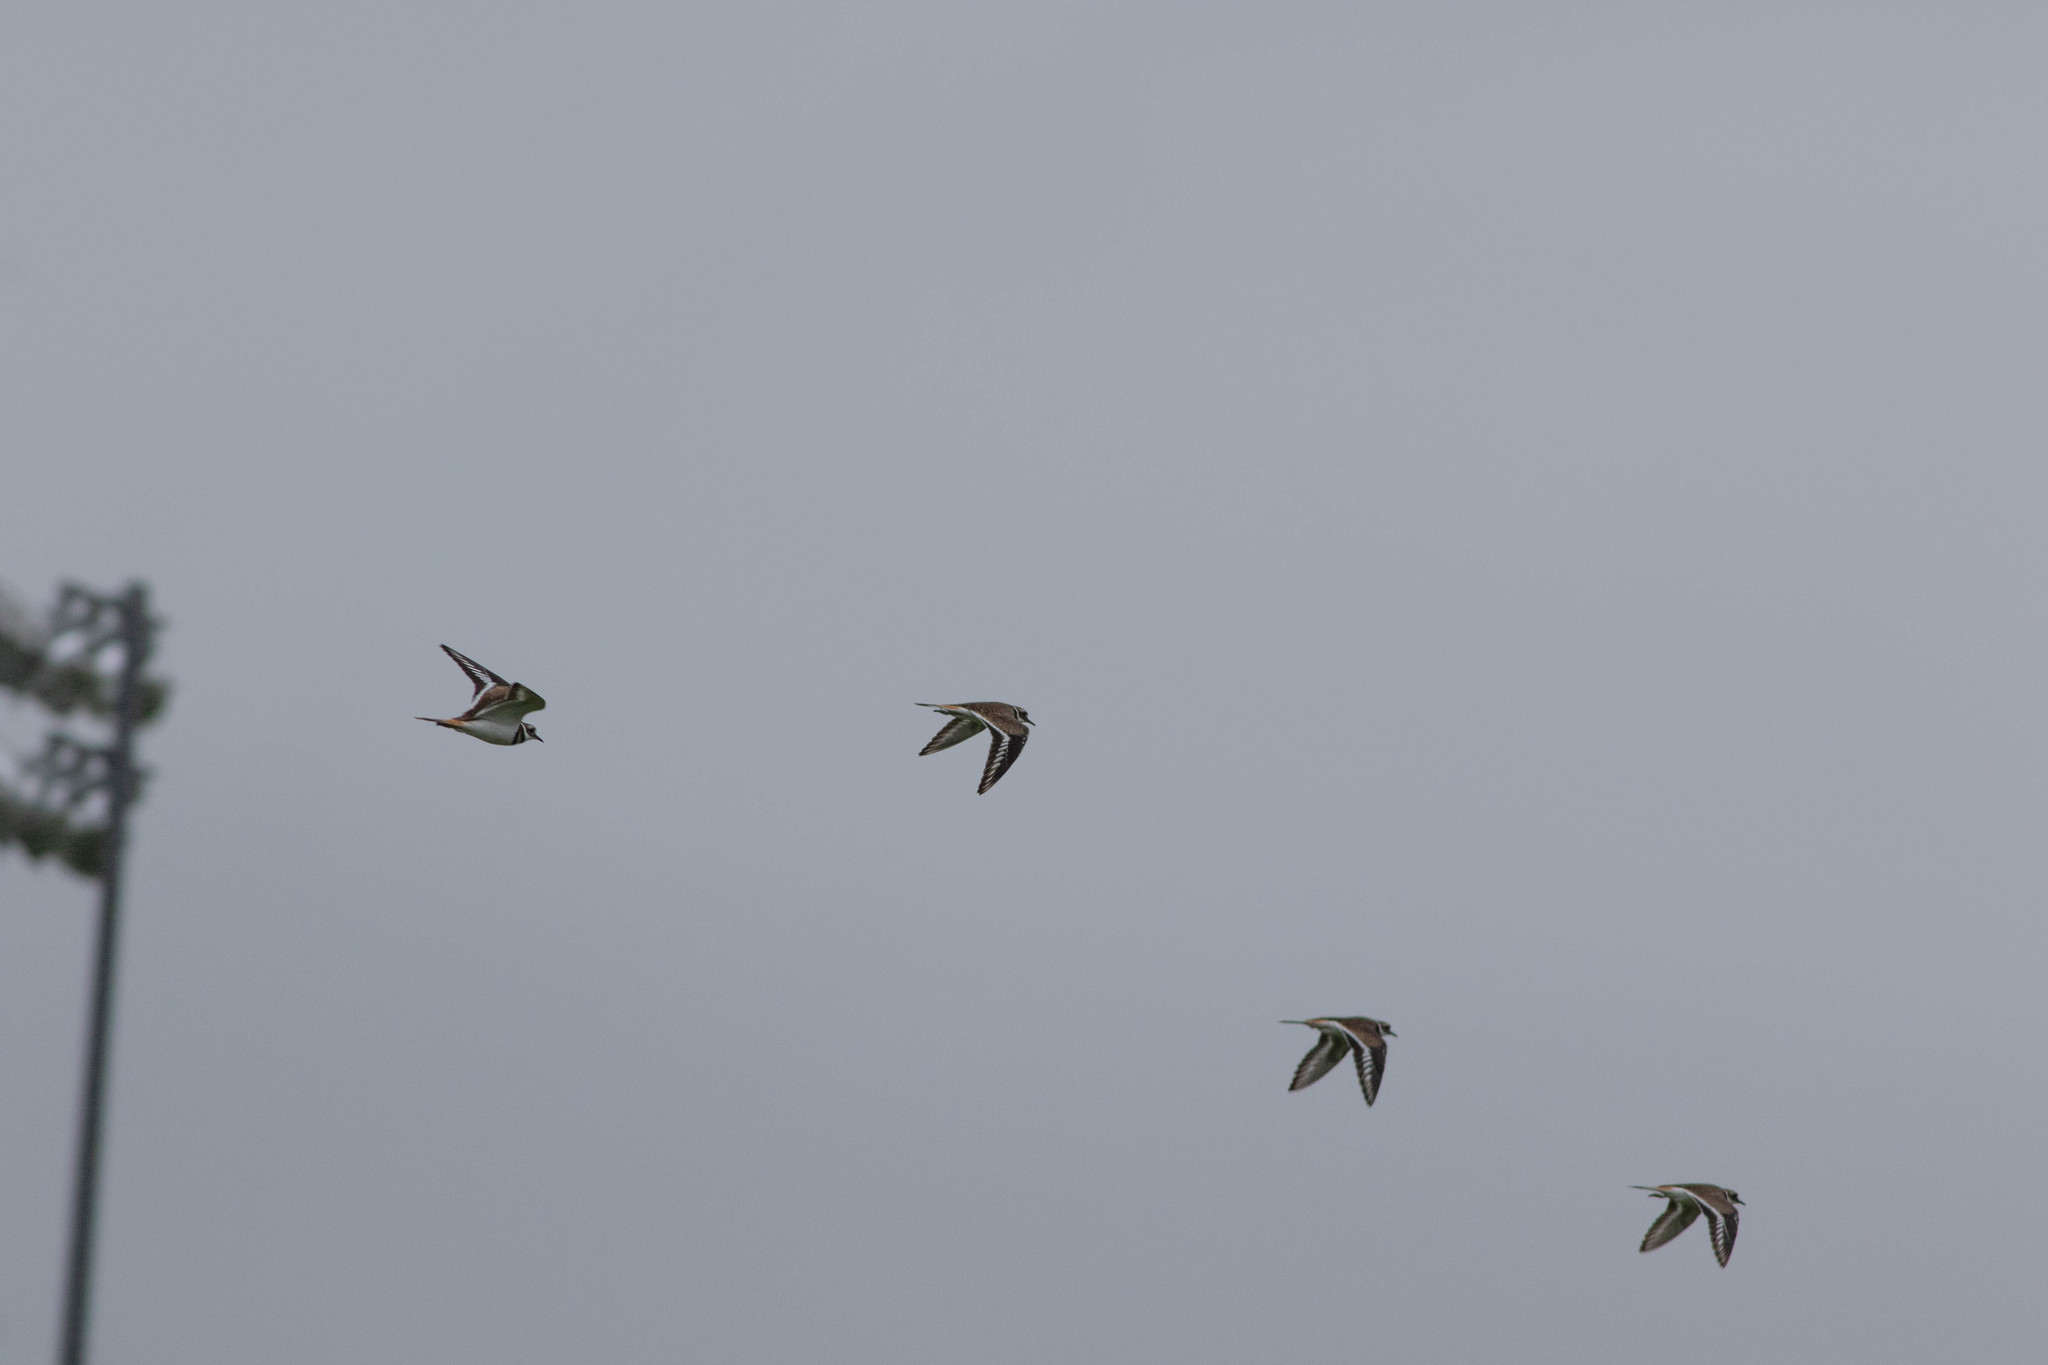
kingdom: Animalia
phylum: Chordata
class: Aves
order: Charadriiformes
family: Charadriidae
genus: Charadrius
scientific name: Charadrius vociferus
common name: Killdeer
